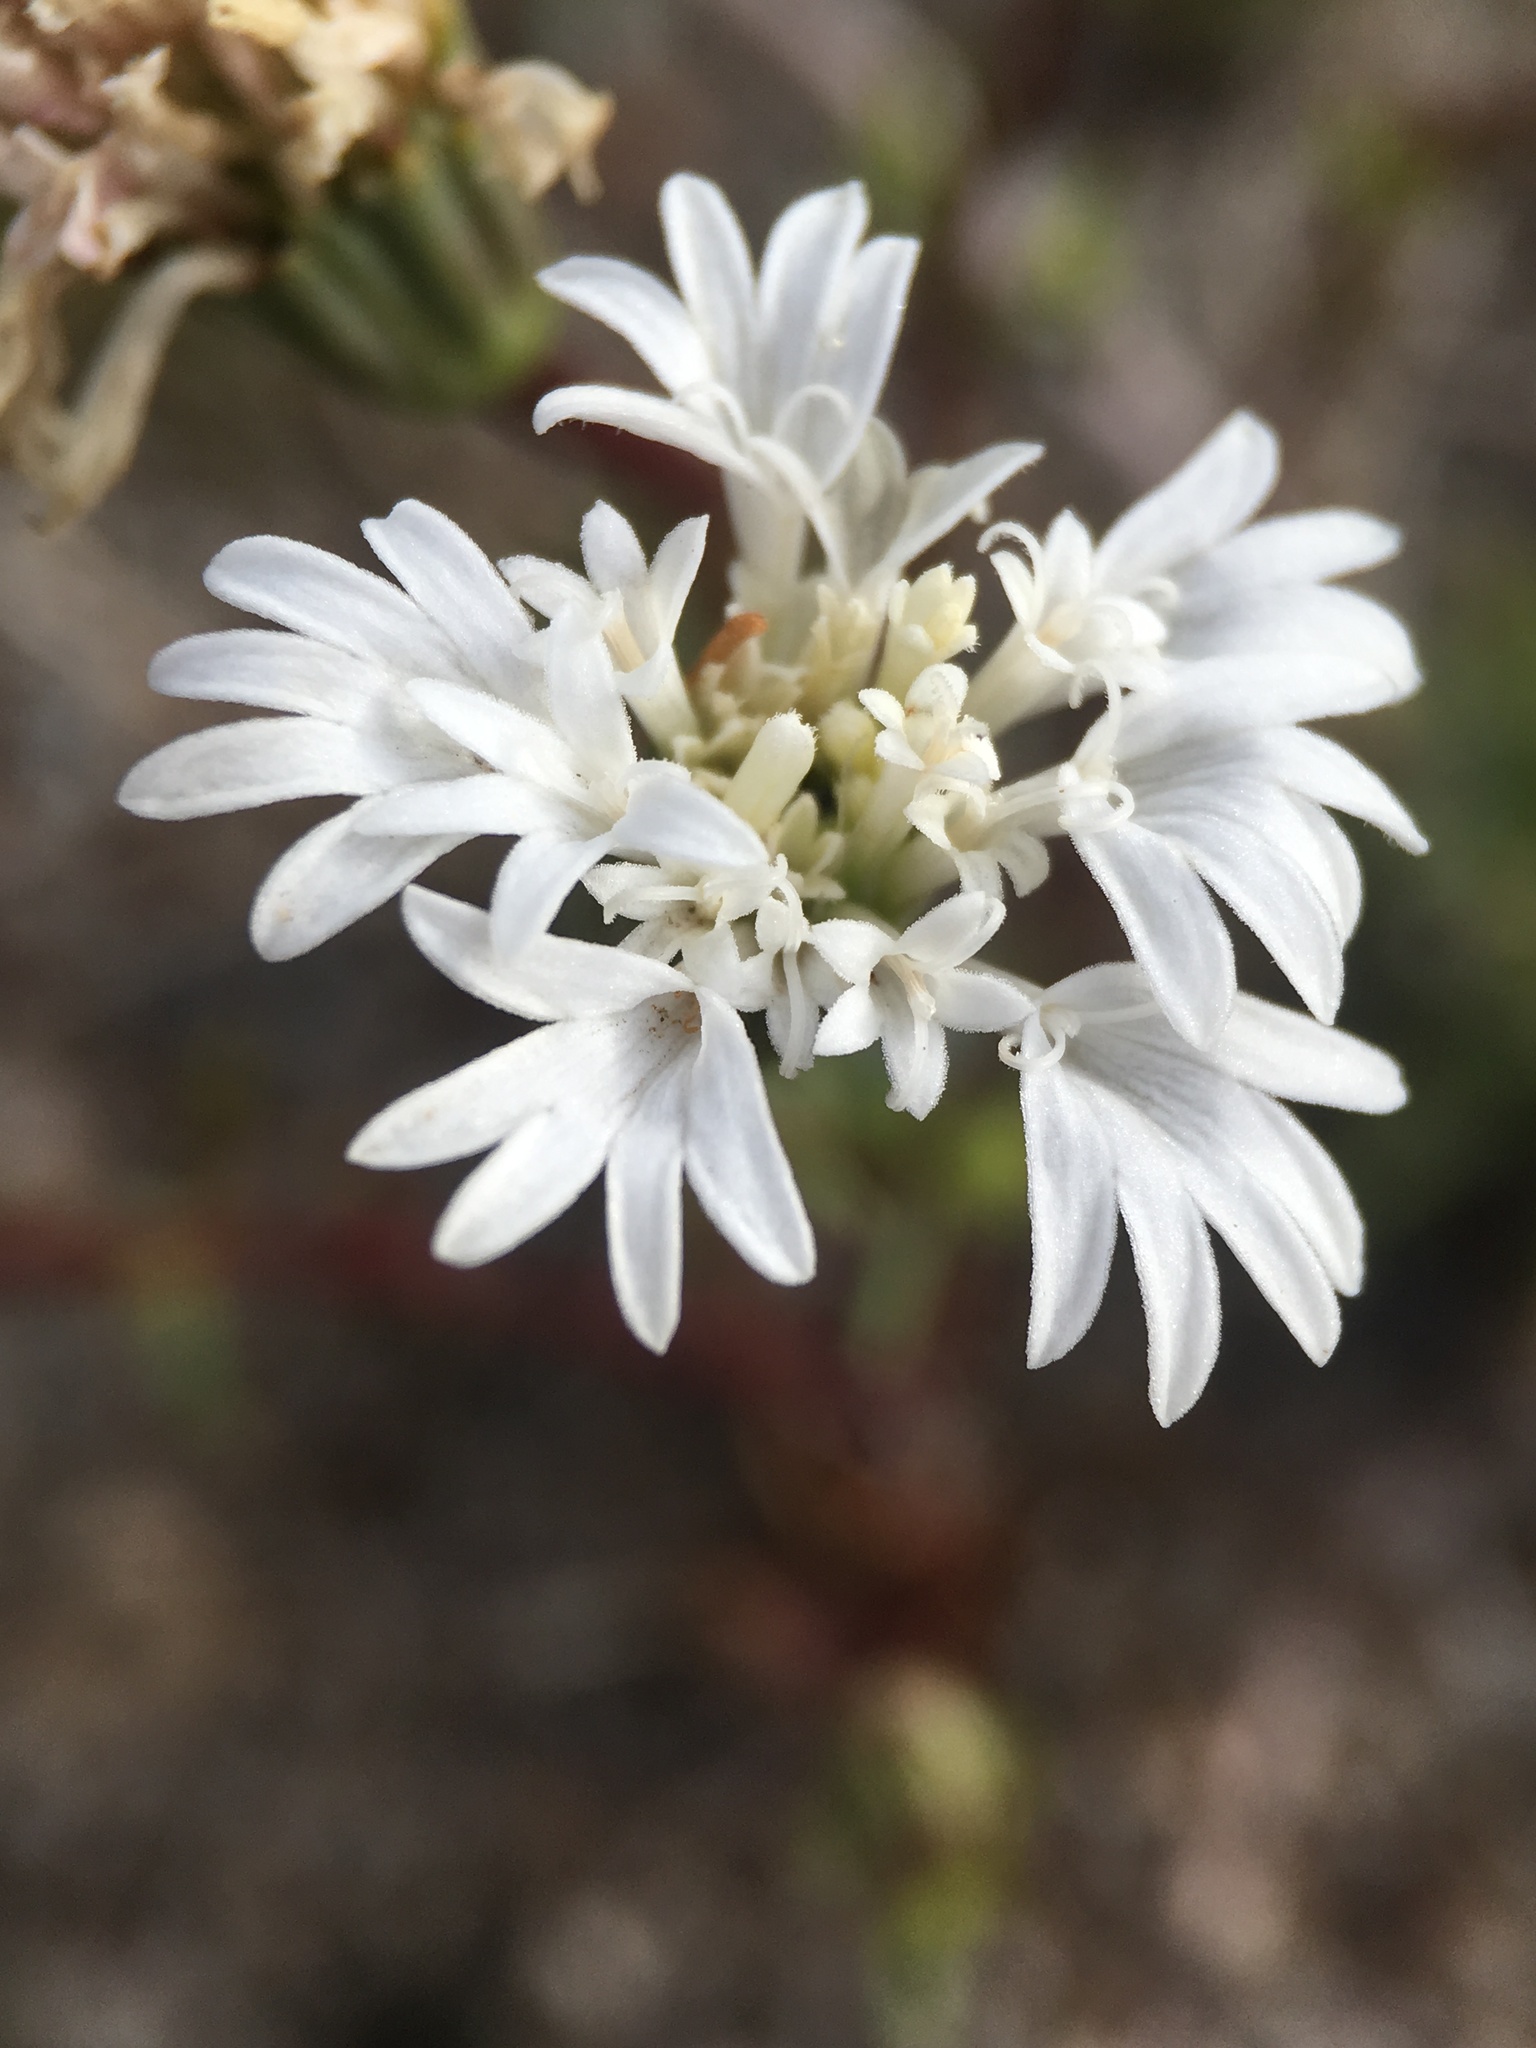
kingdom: Plantae
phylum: Tracheophyta
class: Magnoliopsida
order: Asterales
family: Asteraceae
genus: Chaenactis
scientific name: Chaenactis fremontii
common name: Fremont pincushion
